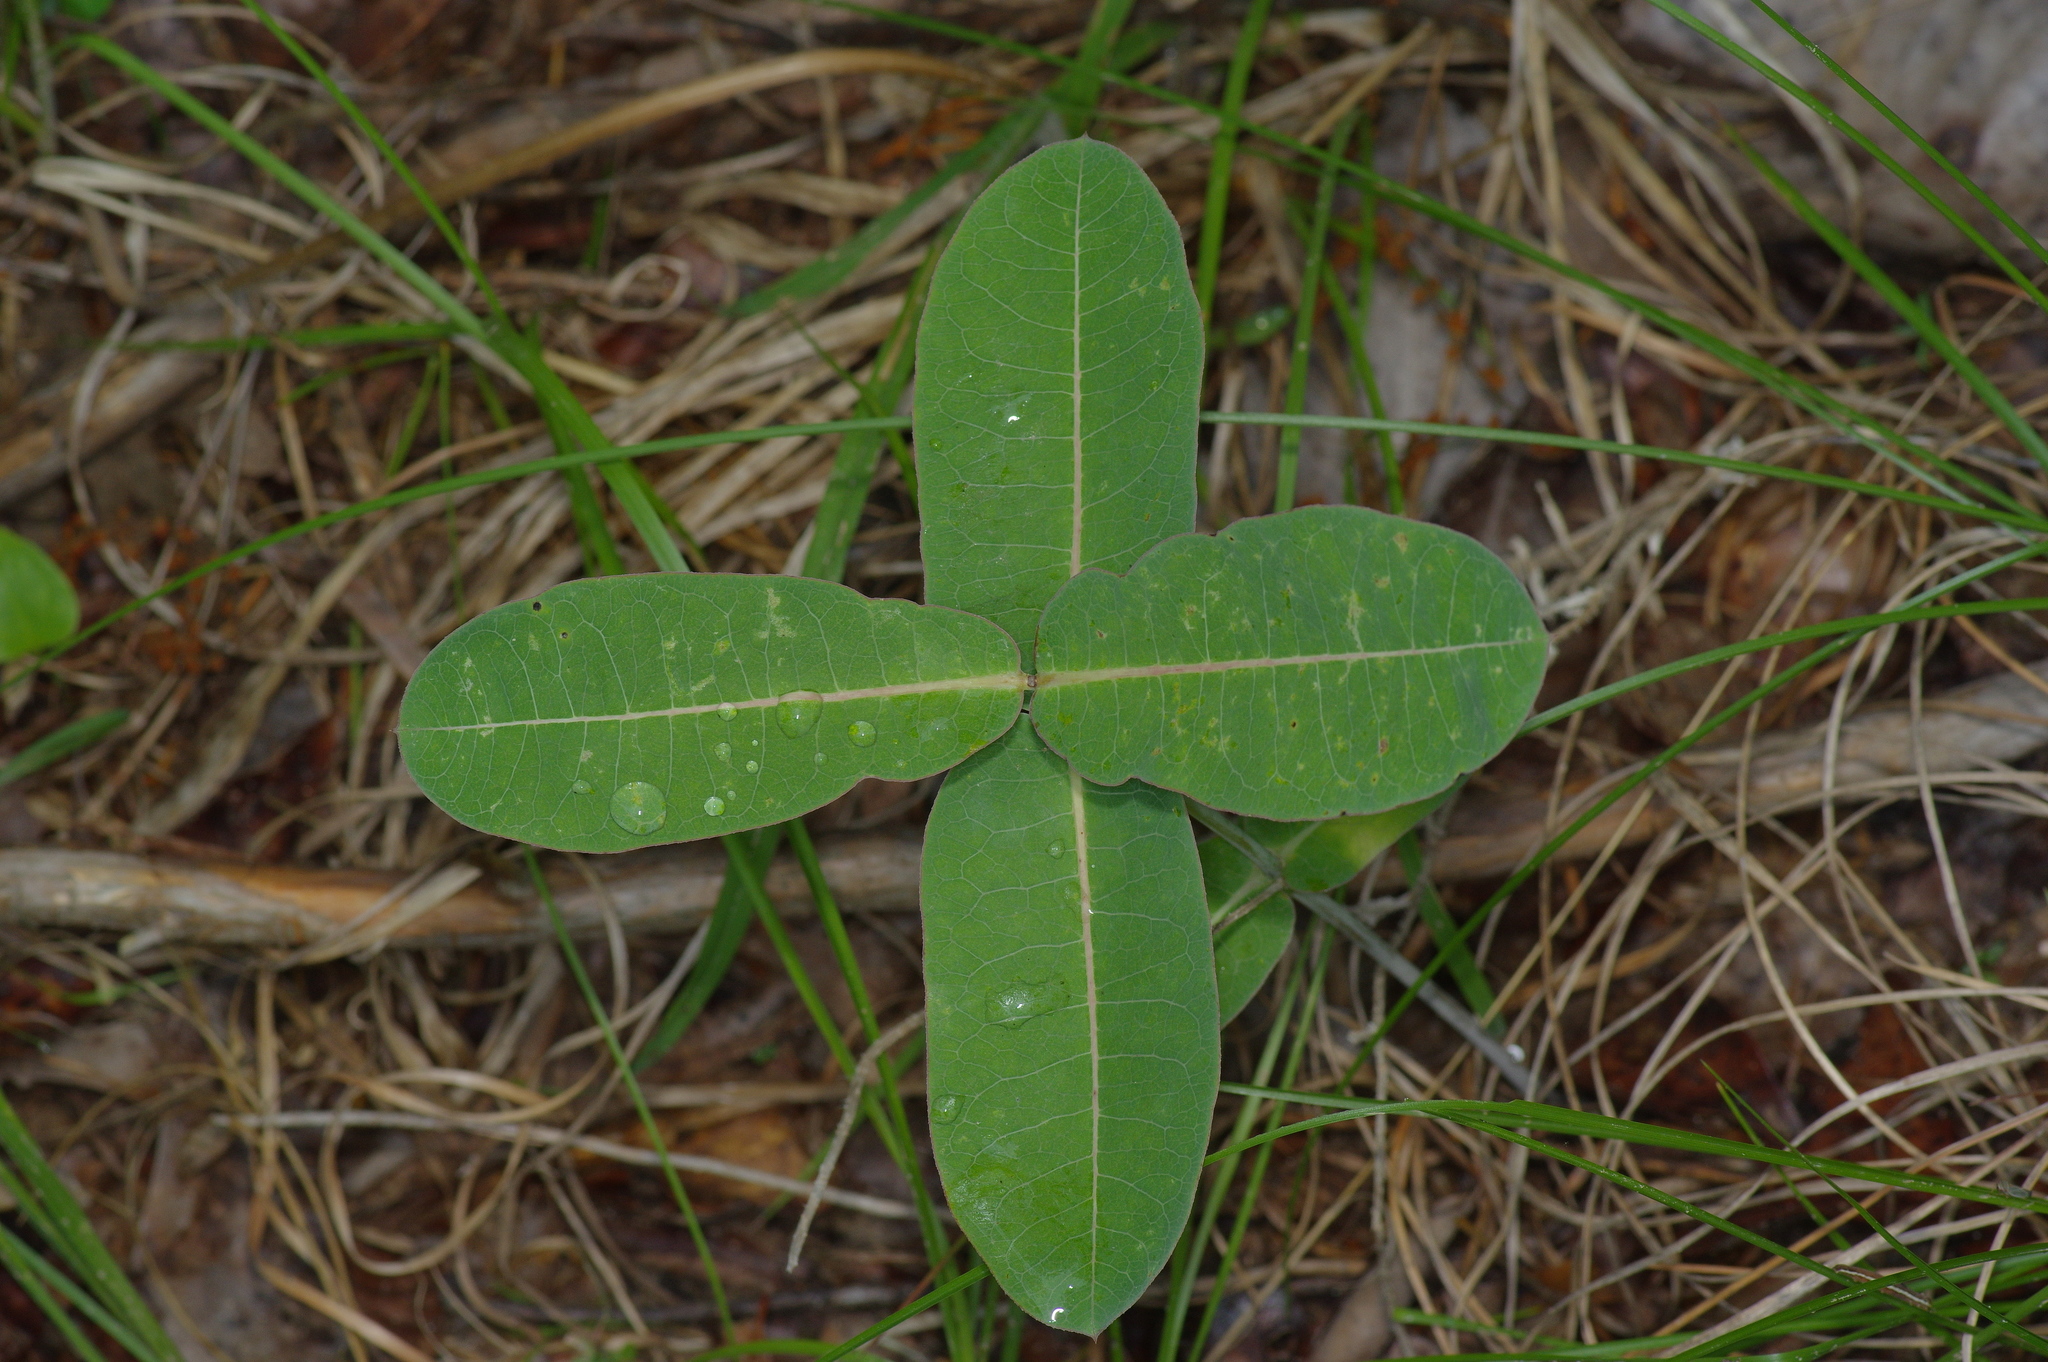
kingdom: Plantae
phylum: Tracheophyta
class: Magnoliopsida
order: Gentianales
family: Apocynaceae
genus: Asclepias
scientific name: Asclepias obovata
